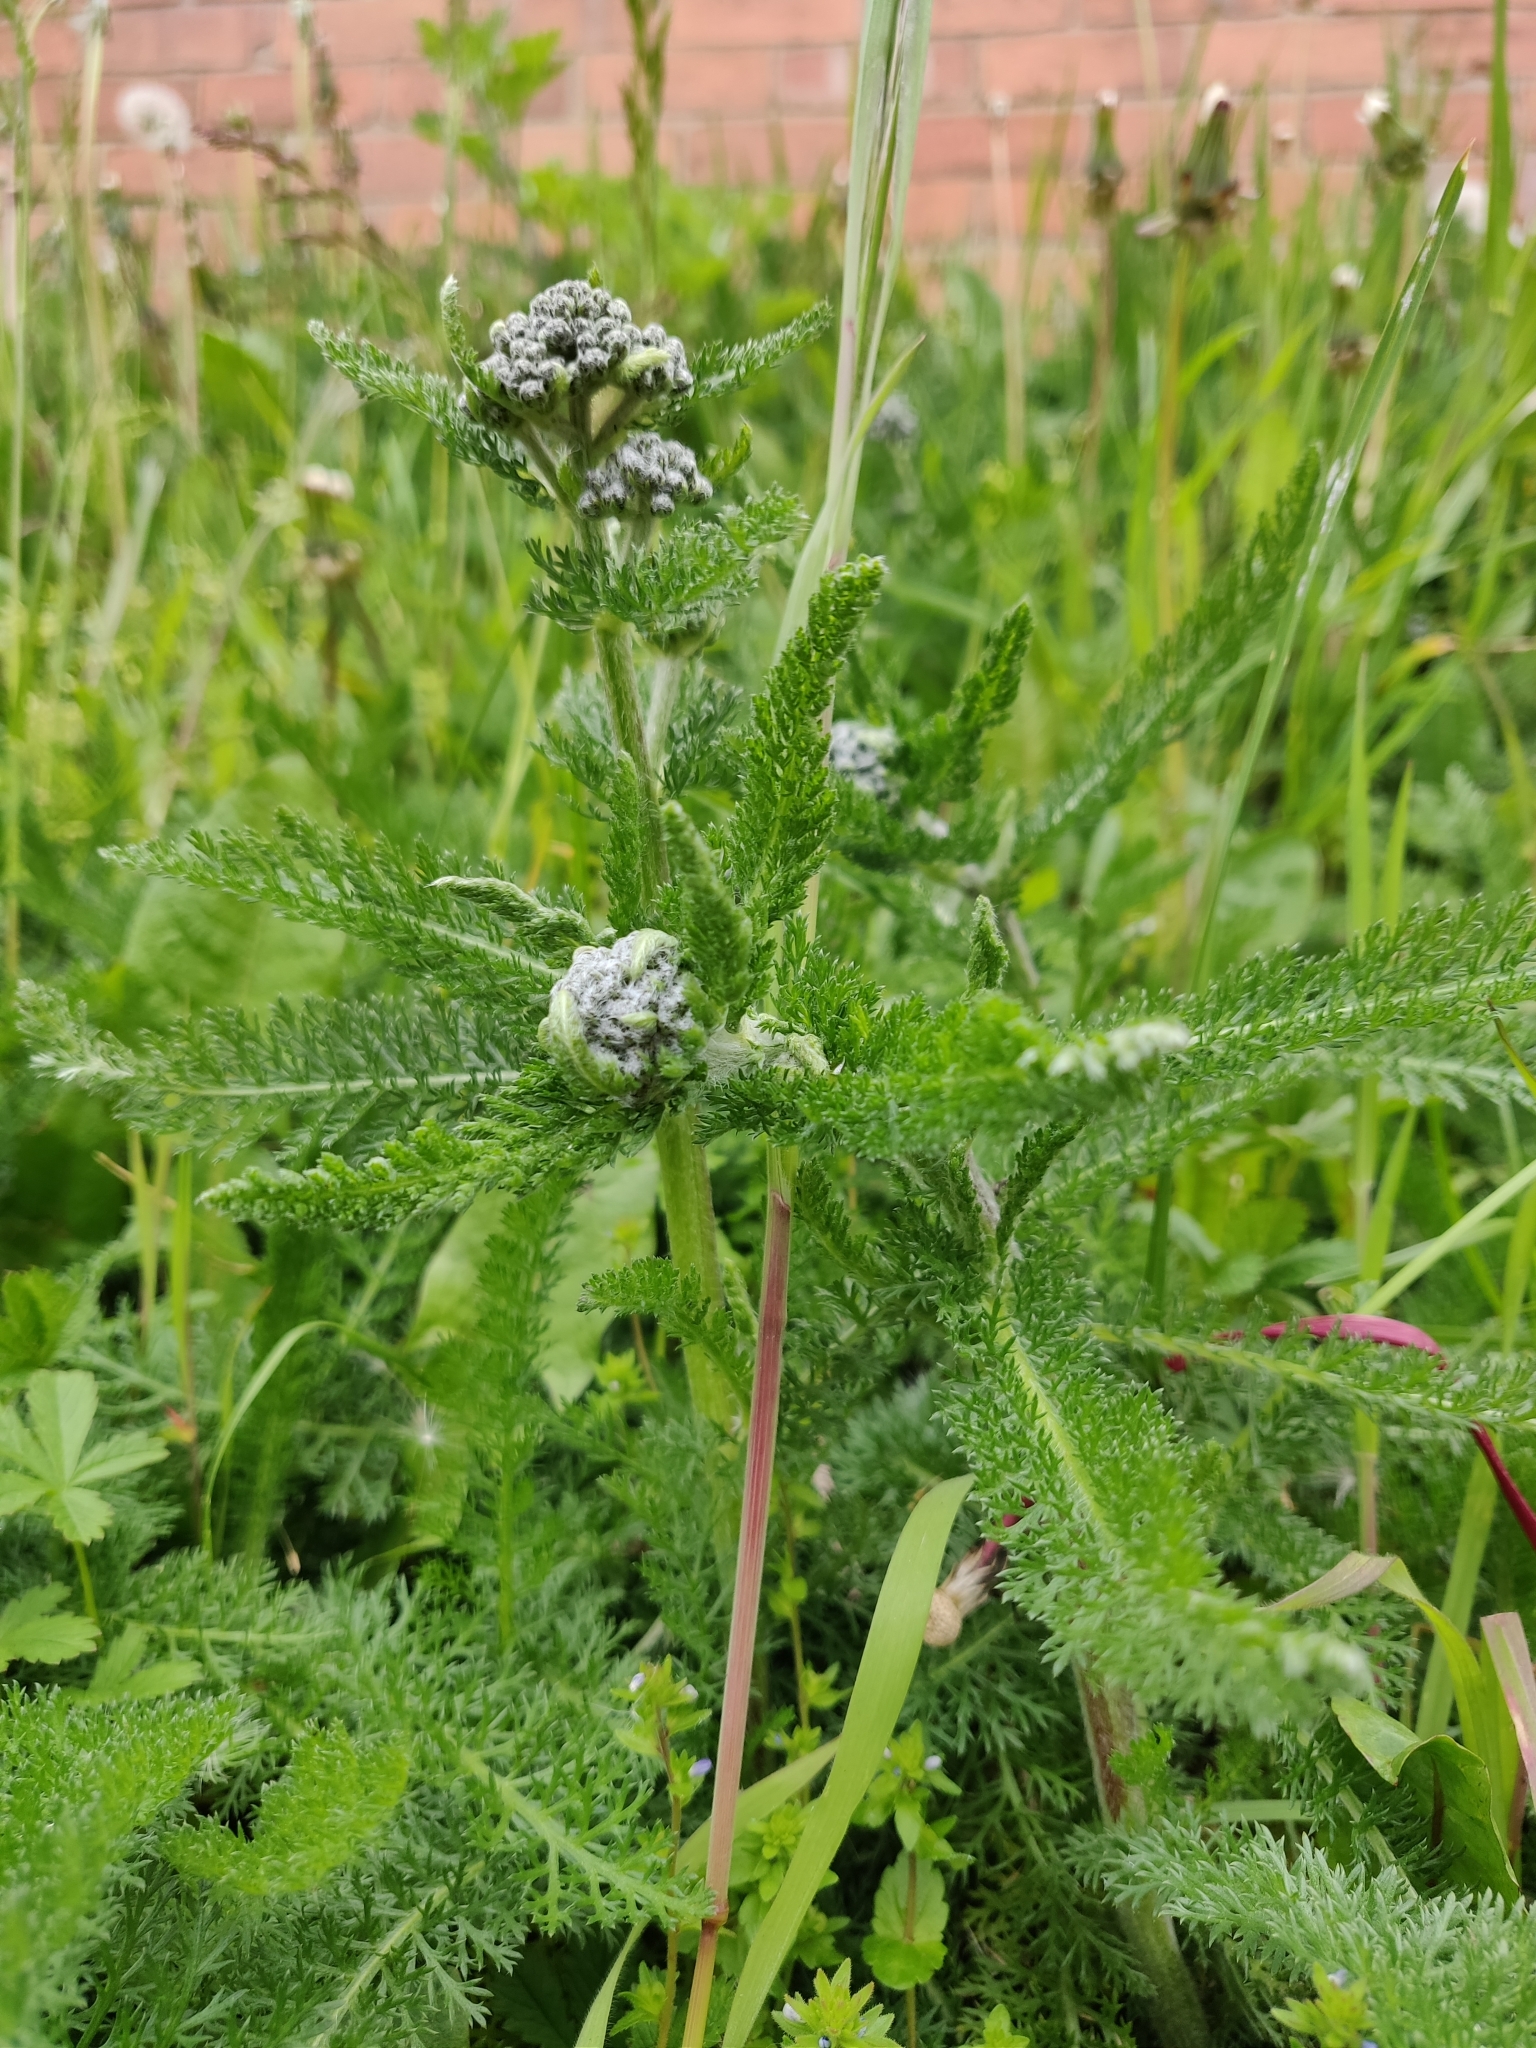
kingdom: Plantae
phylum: Tracheophyta
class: Magnoliopsida
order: Asterales
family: Asteraceae
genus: Achillea
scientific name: Achillea millefolium
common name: Yarrow
